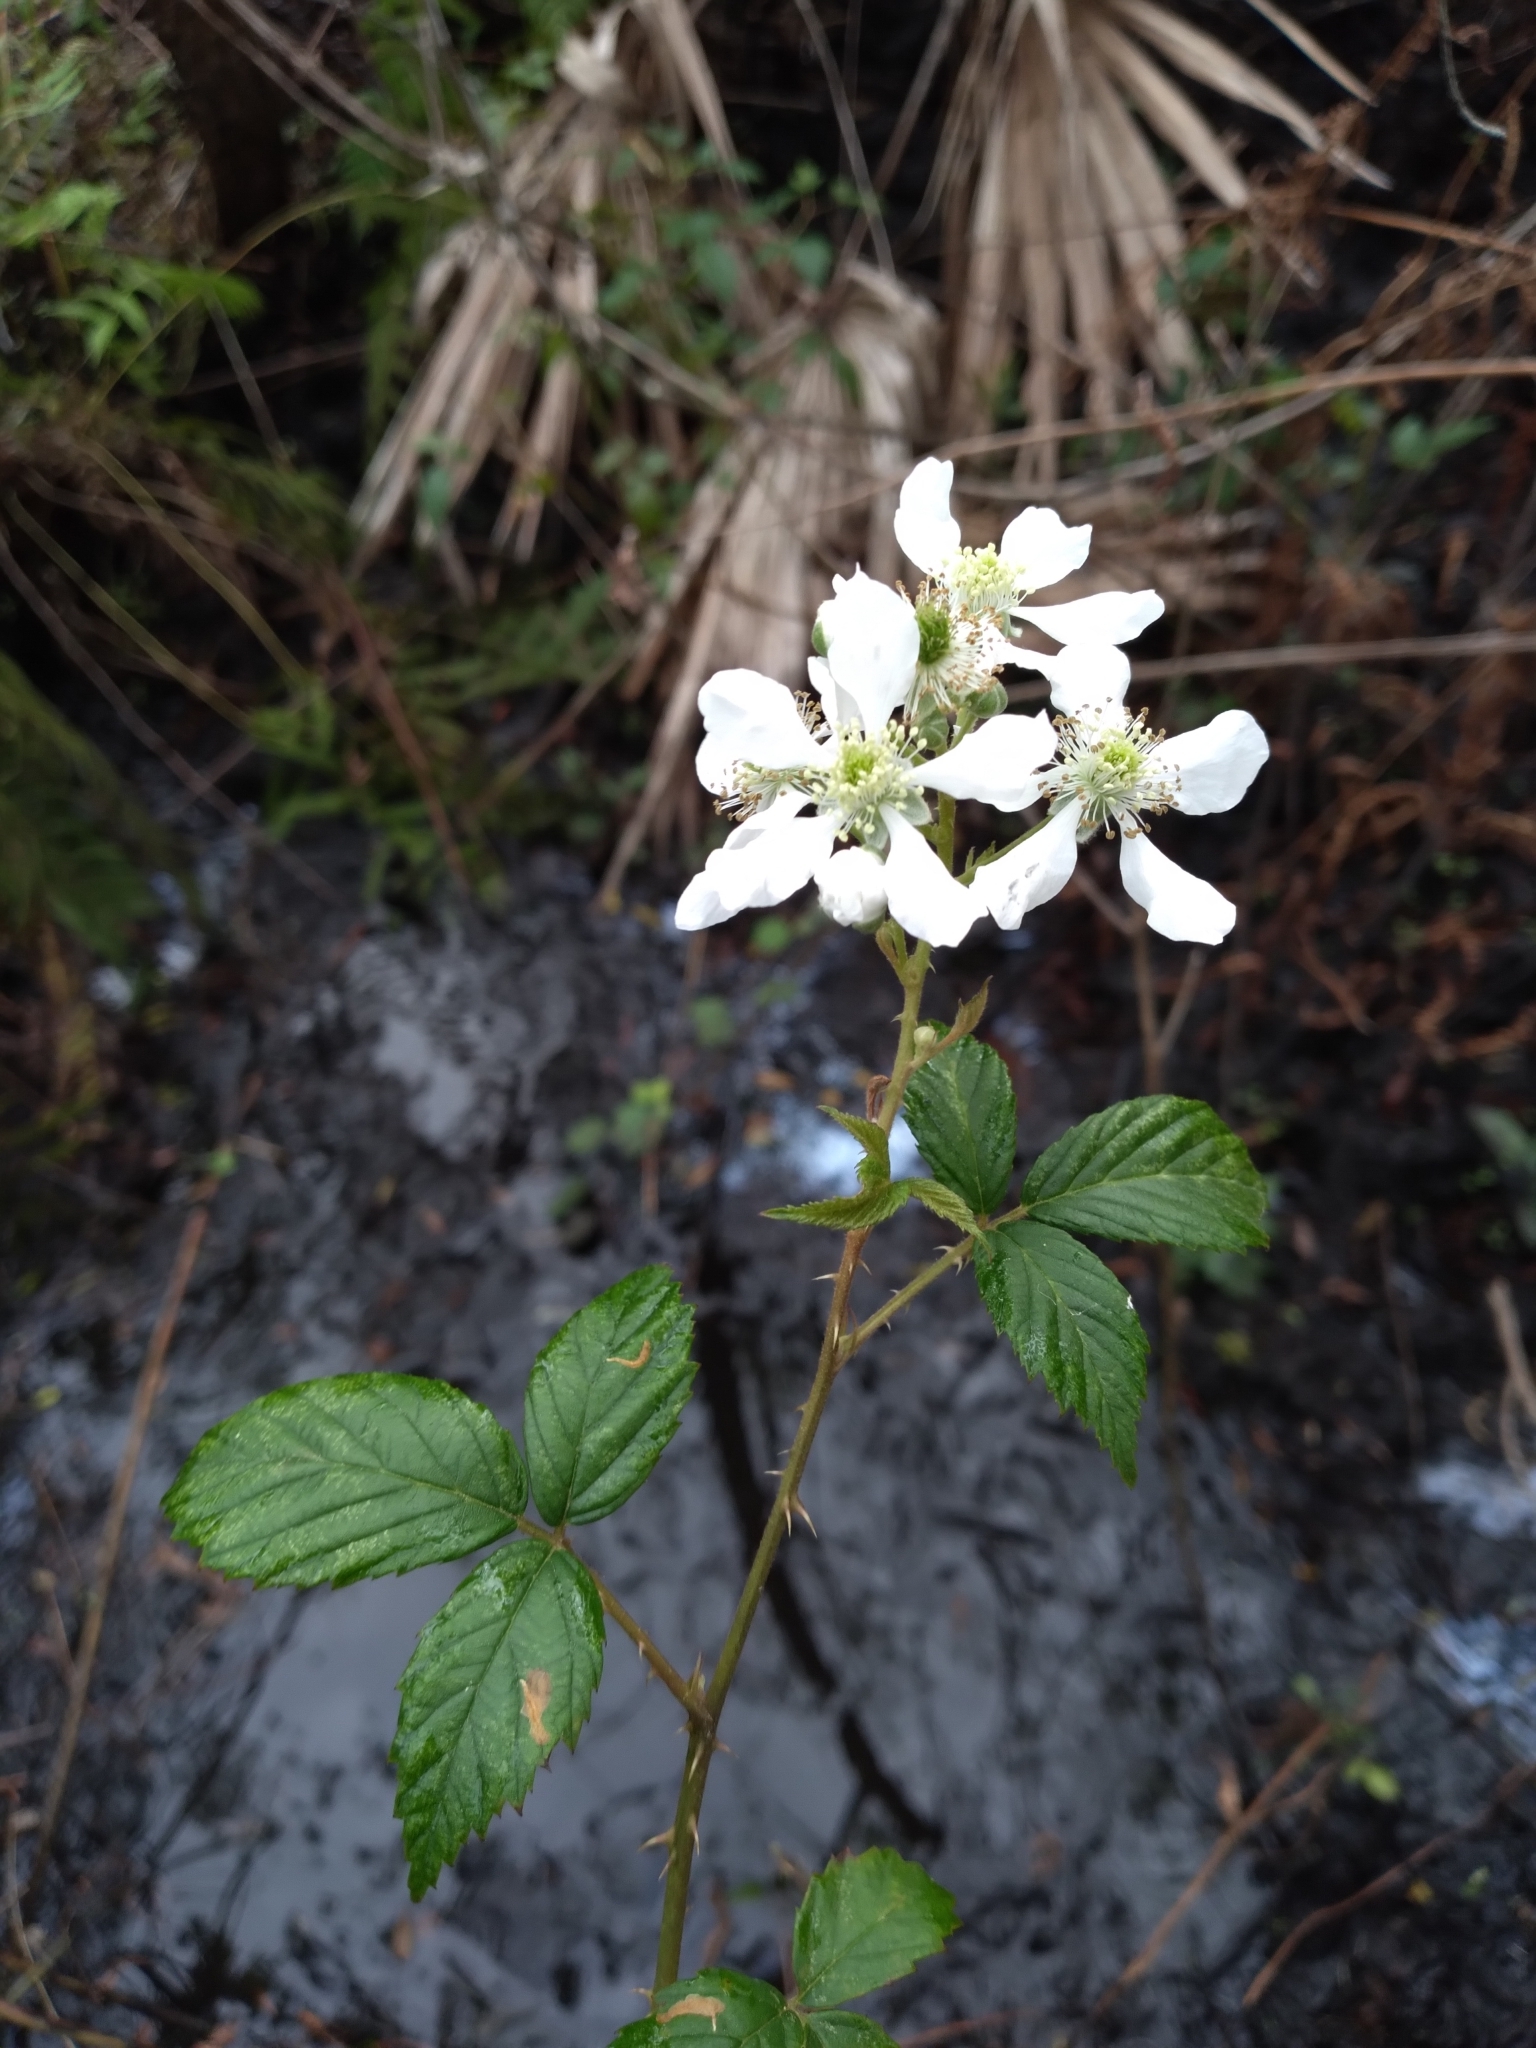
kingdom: Plantae
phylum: Tracheophyta
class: Magnoliopsida
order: Rosales
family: Rosaceae
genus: Rubus
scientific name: Rubus pensilvanicus
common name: Pennsylvania blackberry
